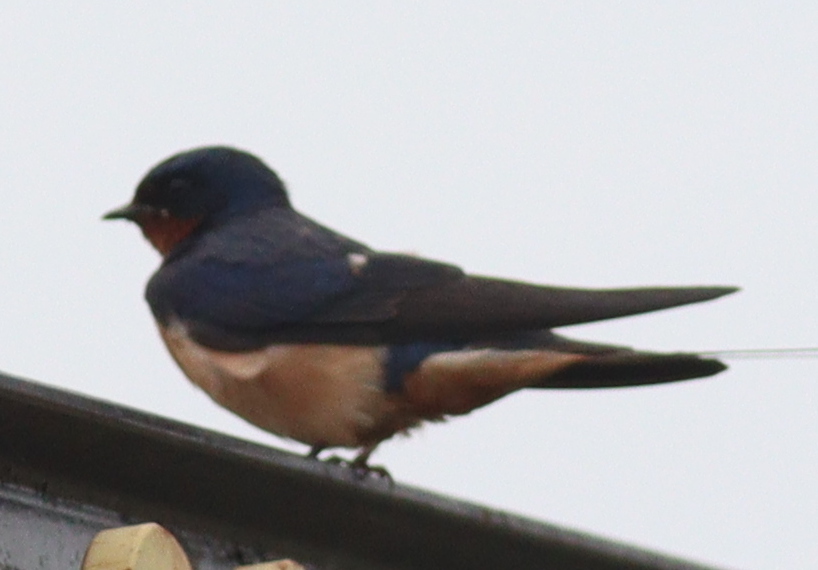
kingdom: Animalia
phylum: Chordata
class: Aves
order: Passeriformes
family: Hirundinidae
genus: Hirundo
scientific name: Hirundo rustica
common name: Barn swallow
